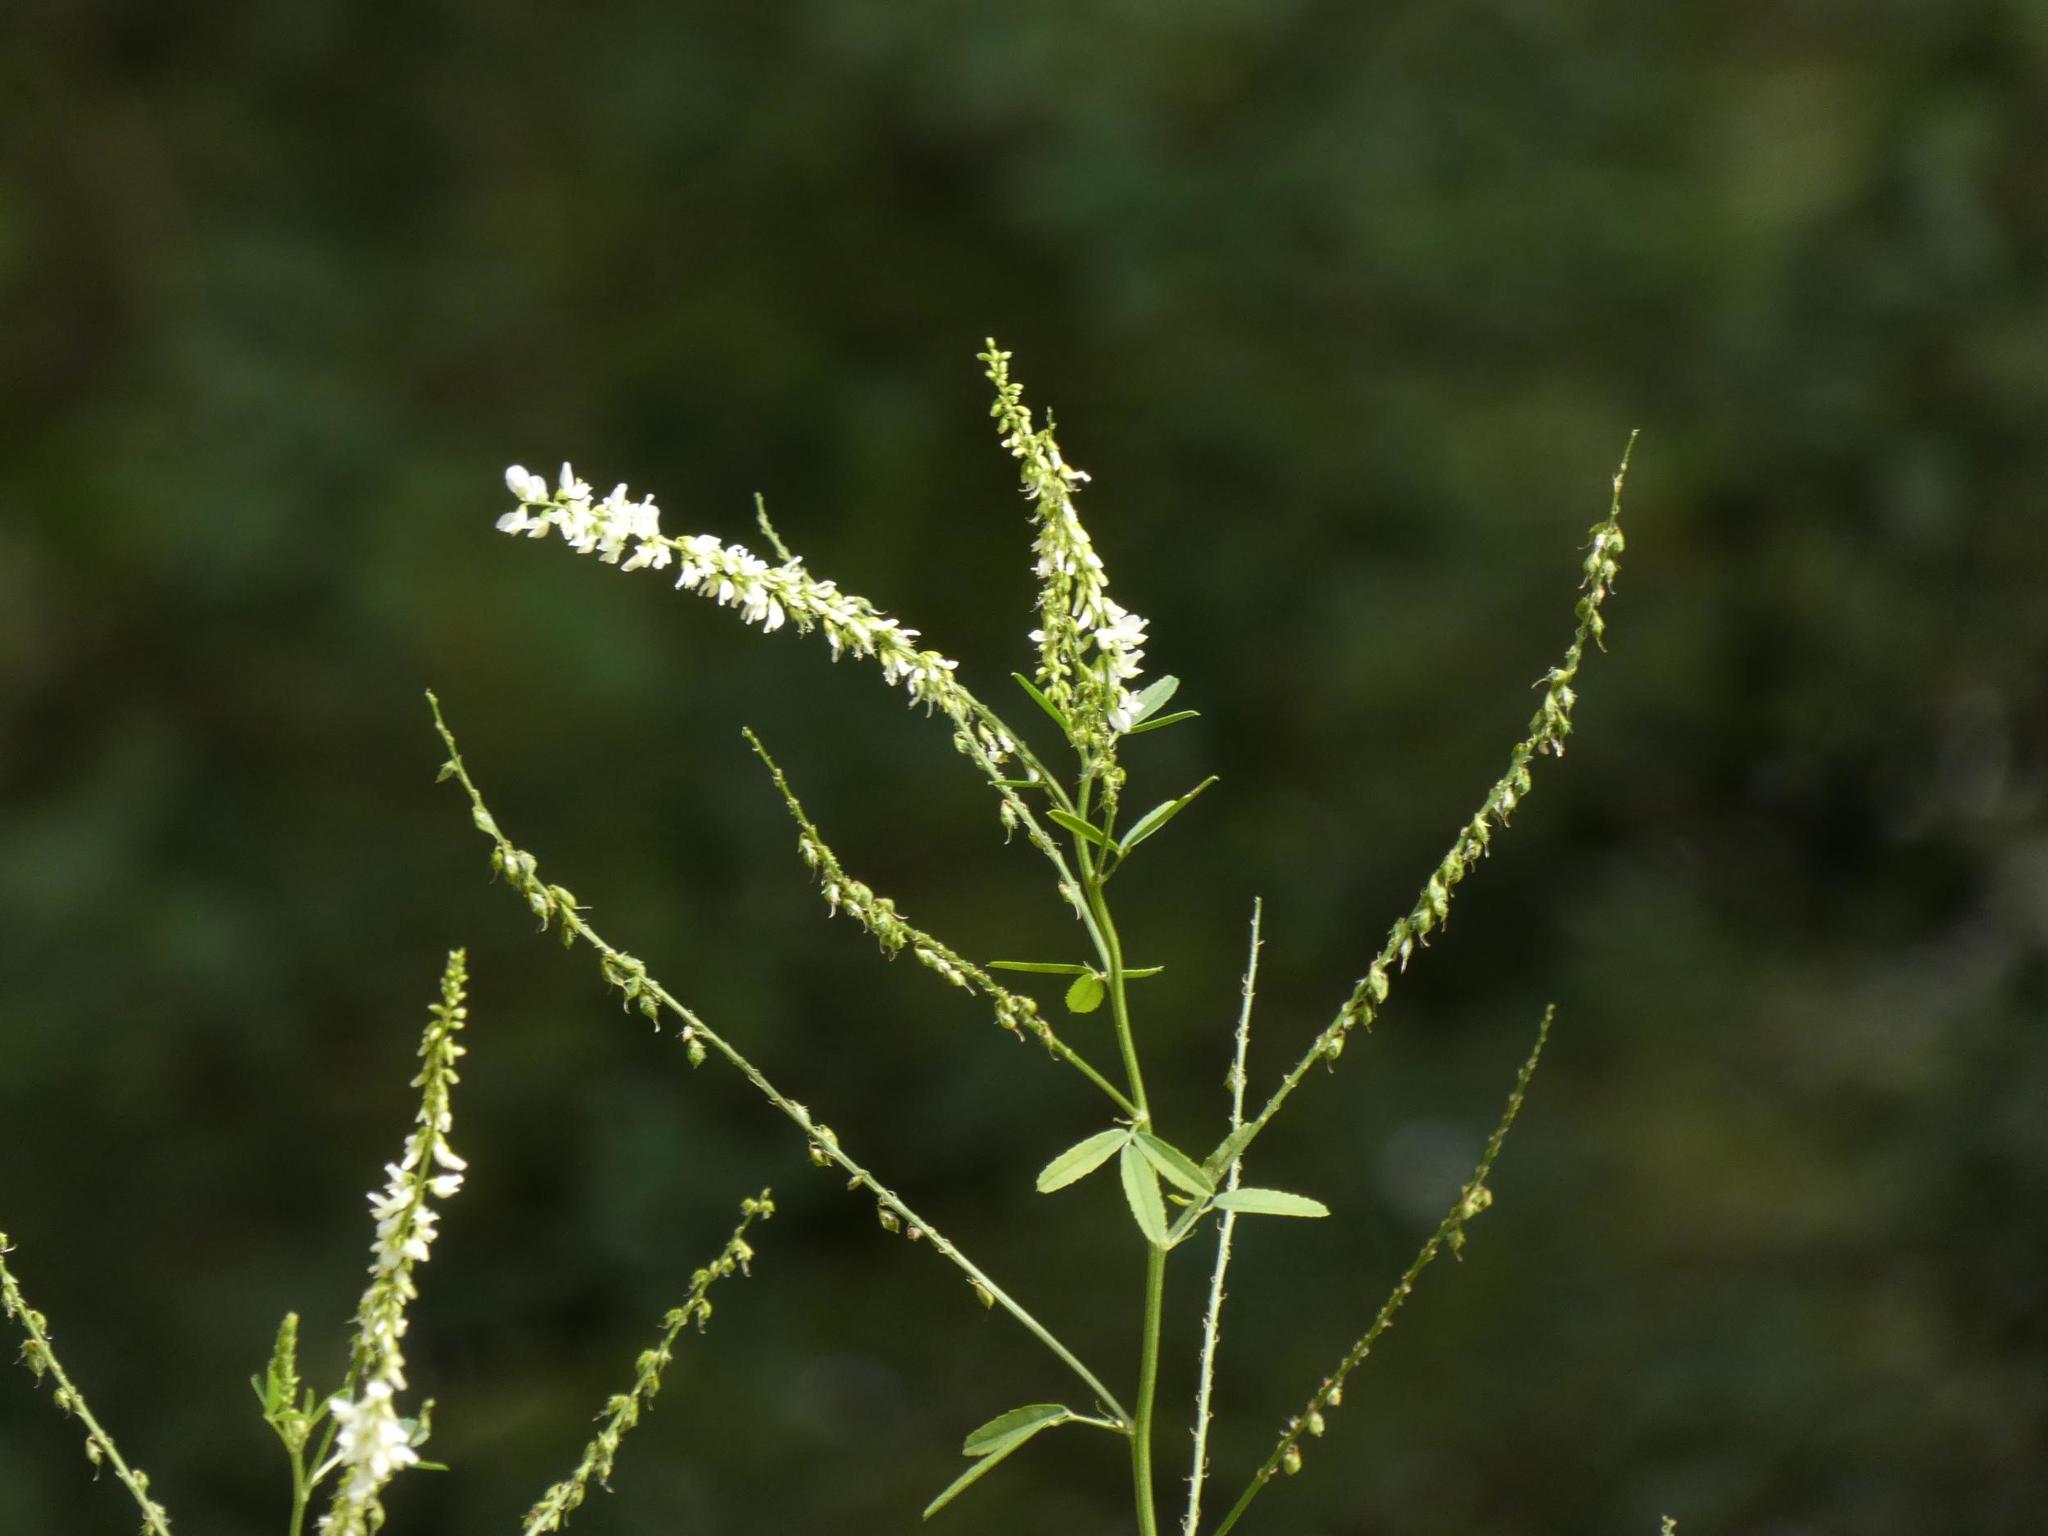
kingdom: Plantae
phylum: Tracheophyta
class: Magnoliopsida
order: Fabales
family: Fabaceae
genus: Melilotus
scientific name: Melilotus albus
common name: White melilot
